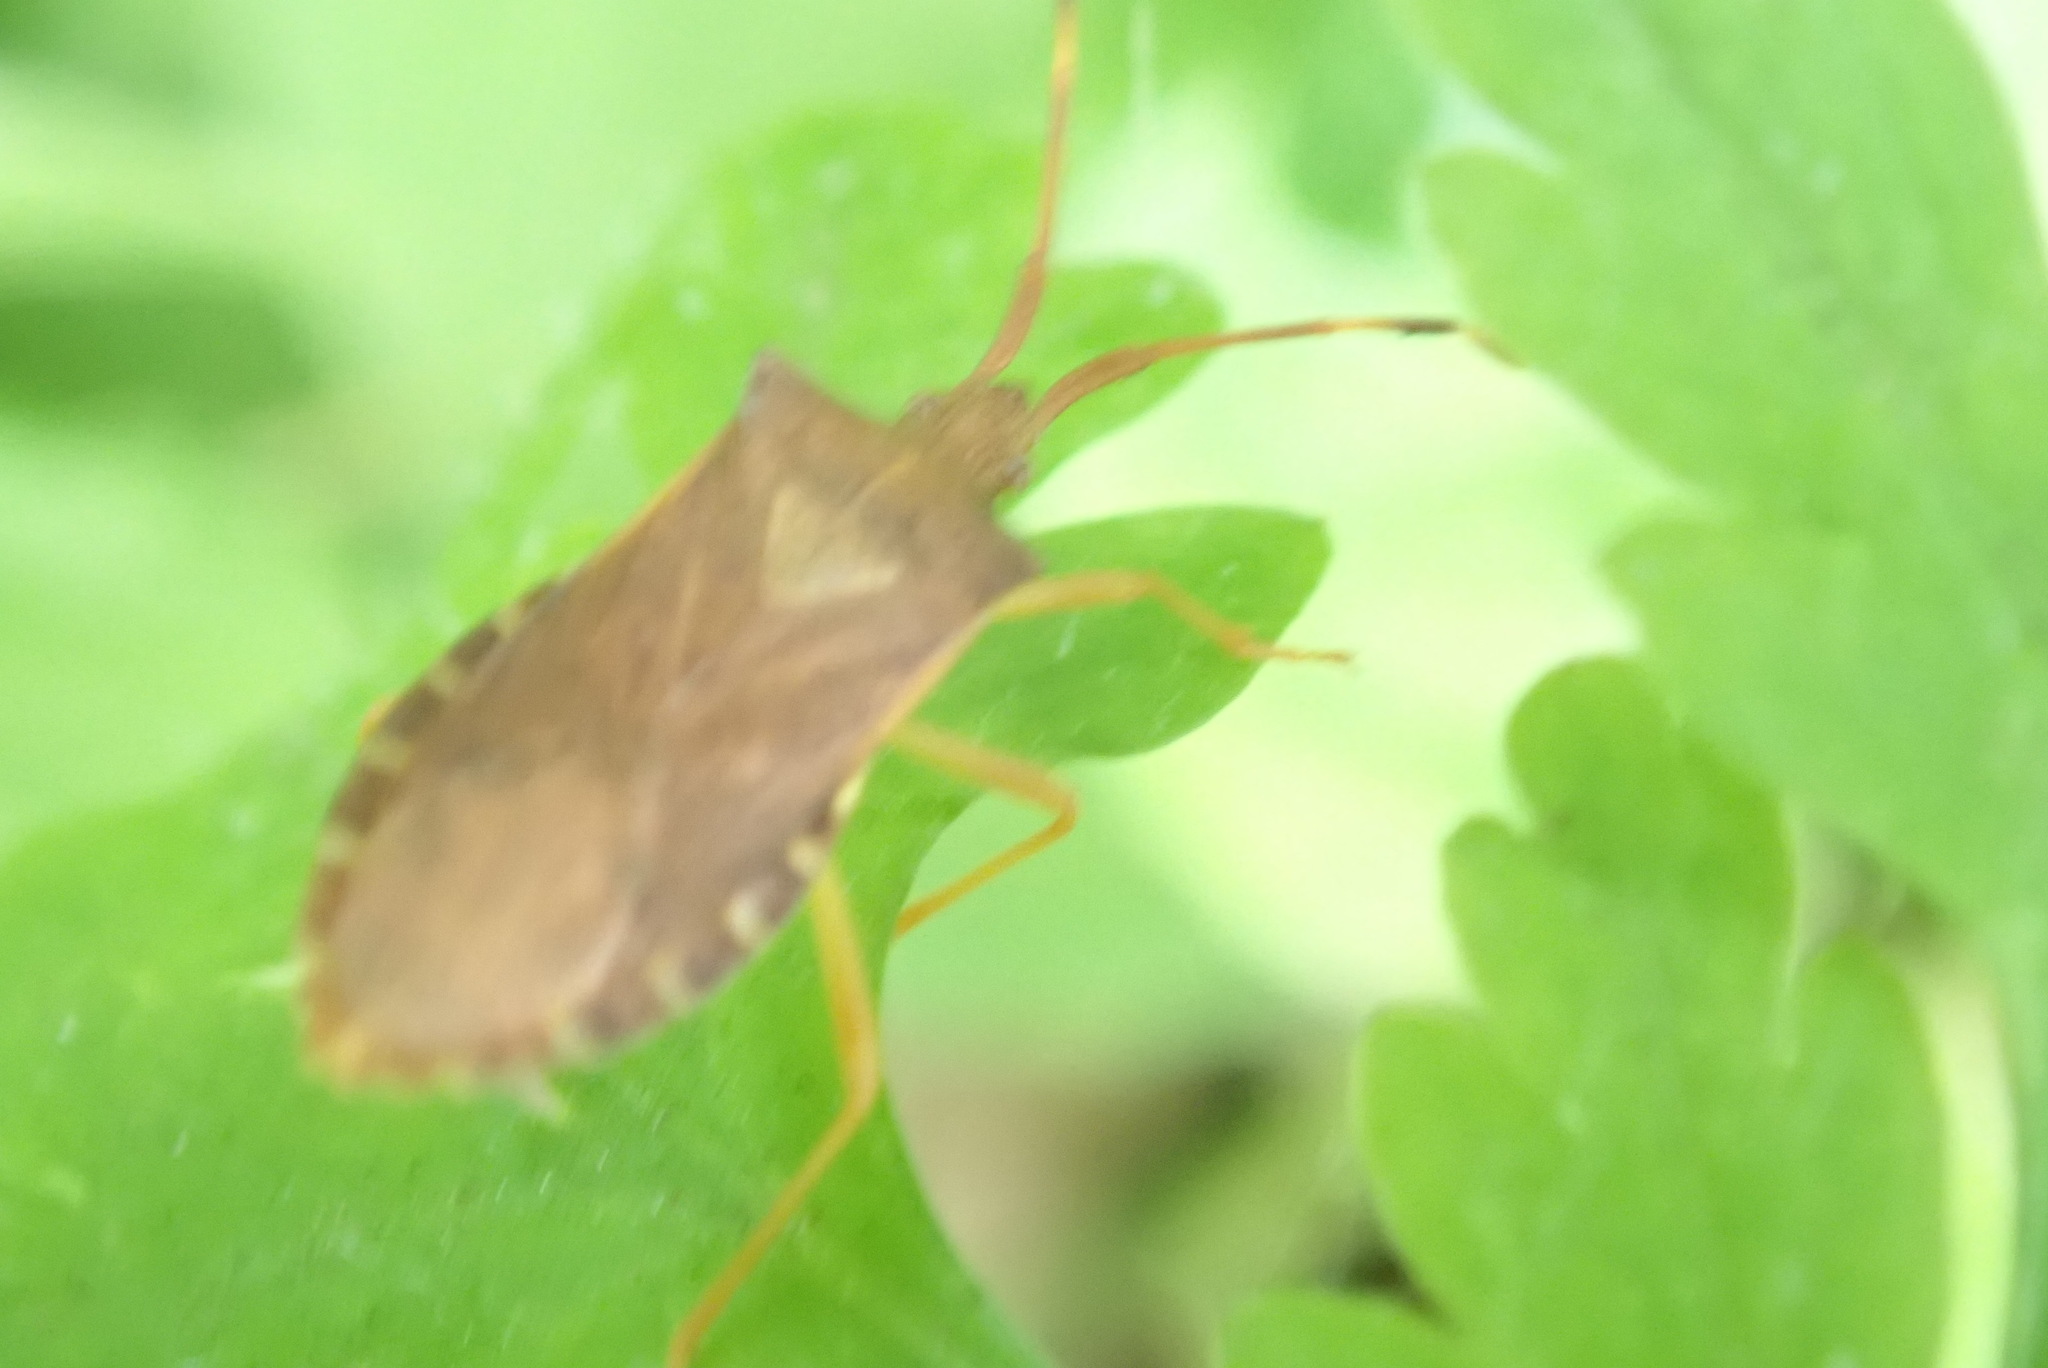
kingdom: Animalia
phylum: Arthropoda
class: Insecta
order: Hemiptera
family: Coreidae
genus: Gonocerus
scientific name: Gonocerus acuteangulatus
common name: Box bug
